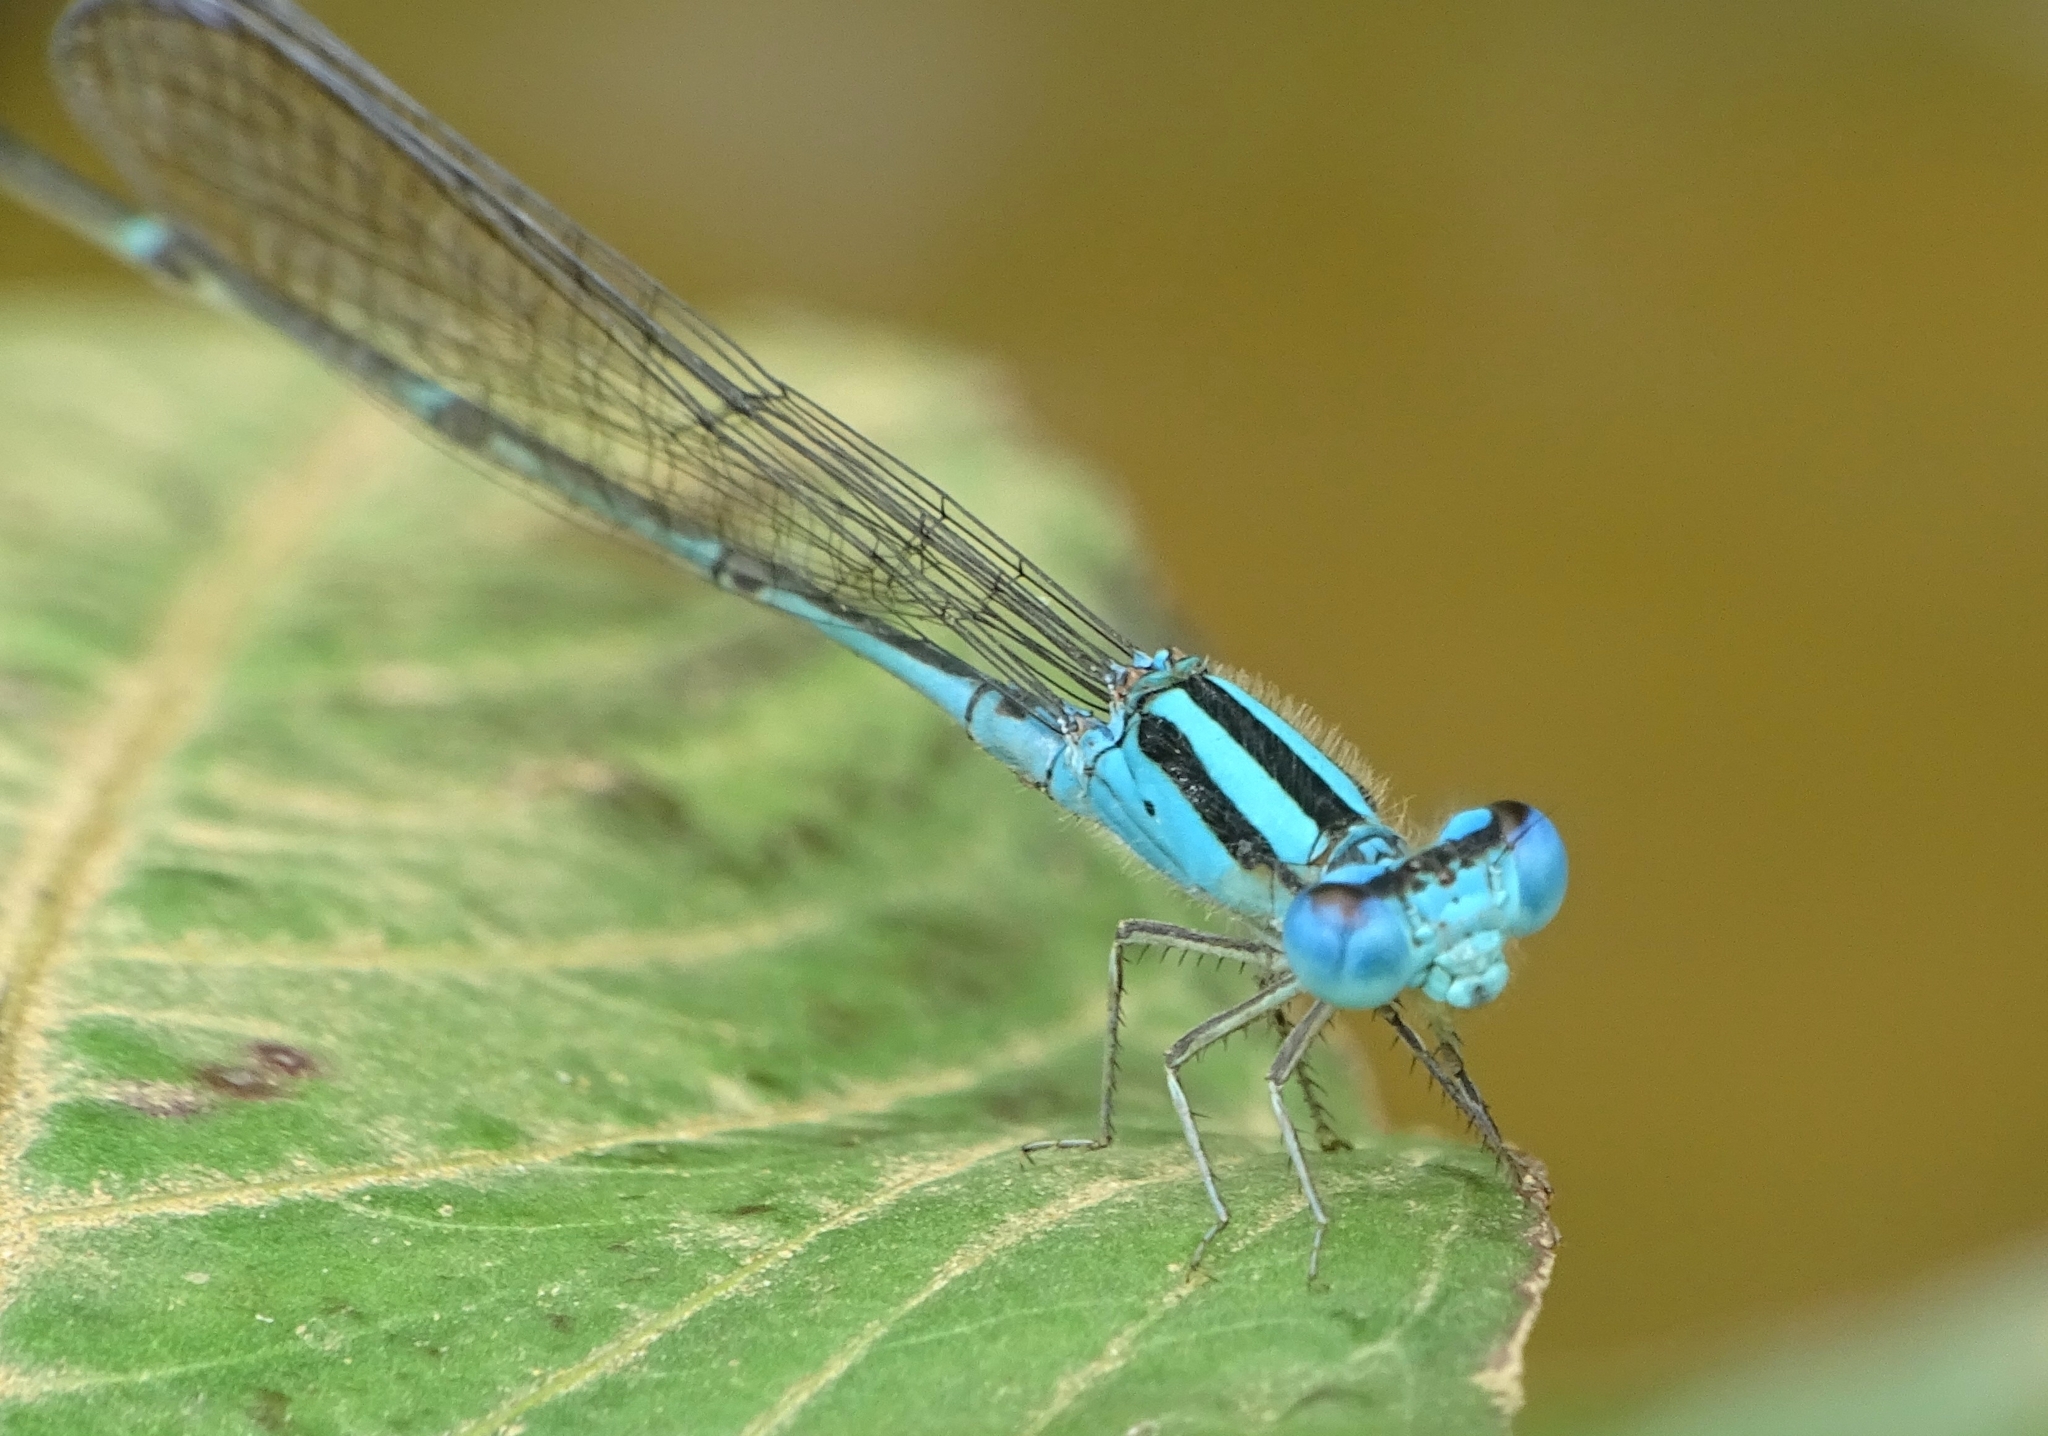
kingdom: Animalia
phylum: Arthropoda
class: Insecta
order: Odonata
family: Coenagrionidae
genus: Pseudagrion
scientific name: Pseudagrion microcephalum
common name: Blue riverdamsel
